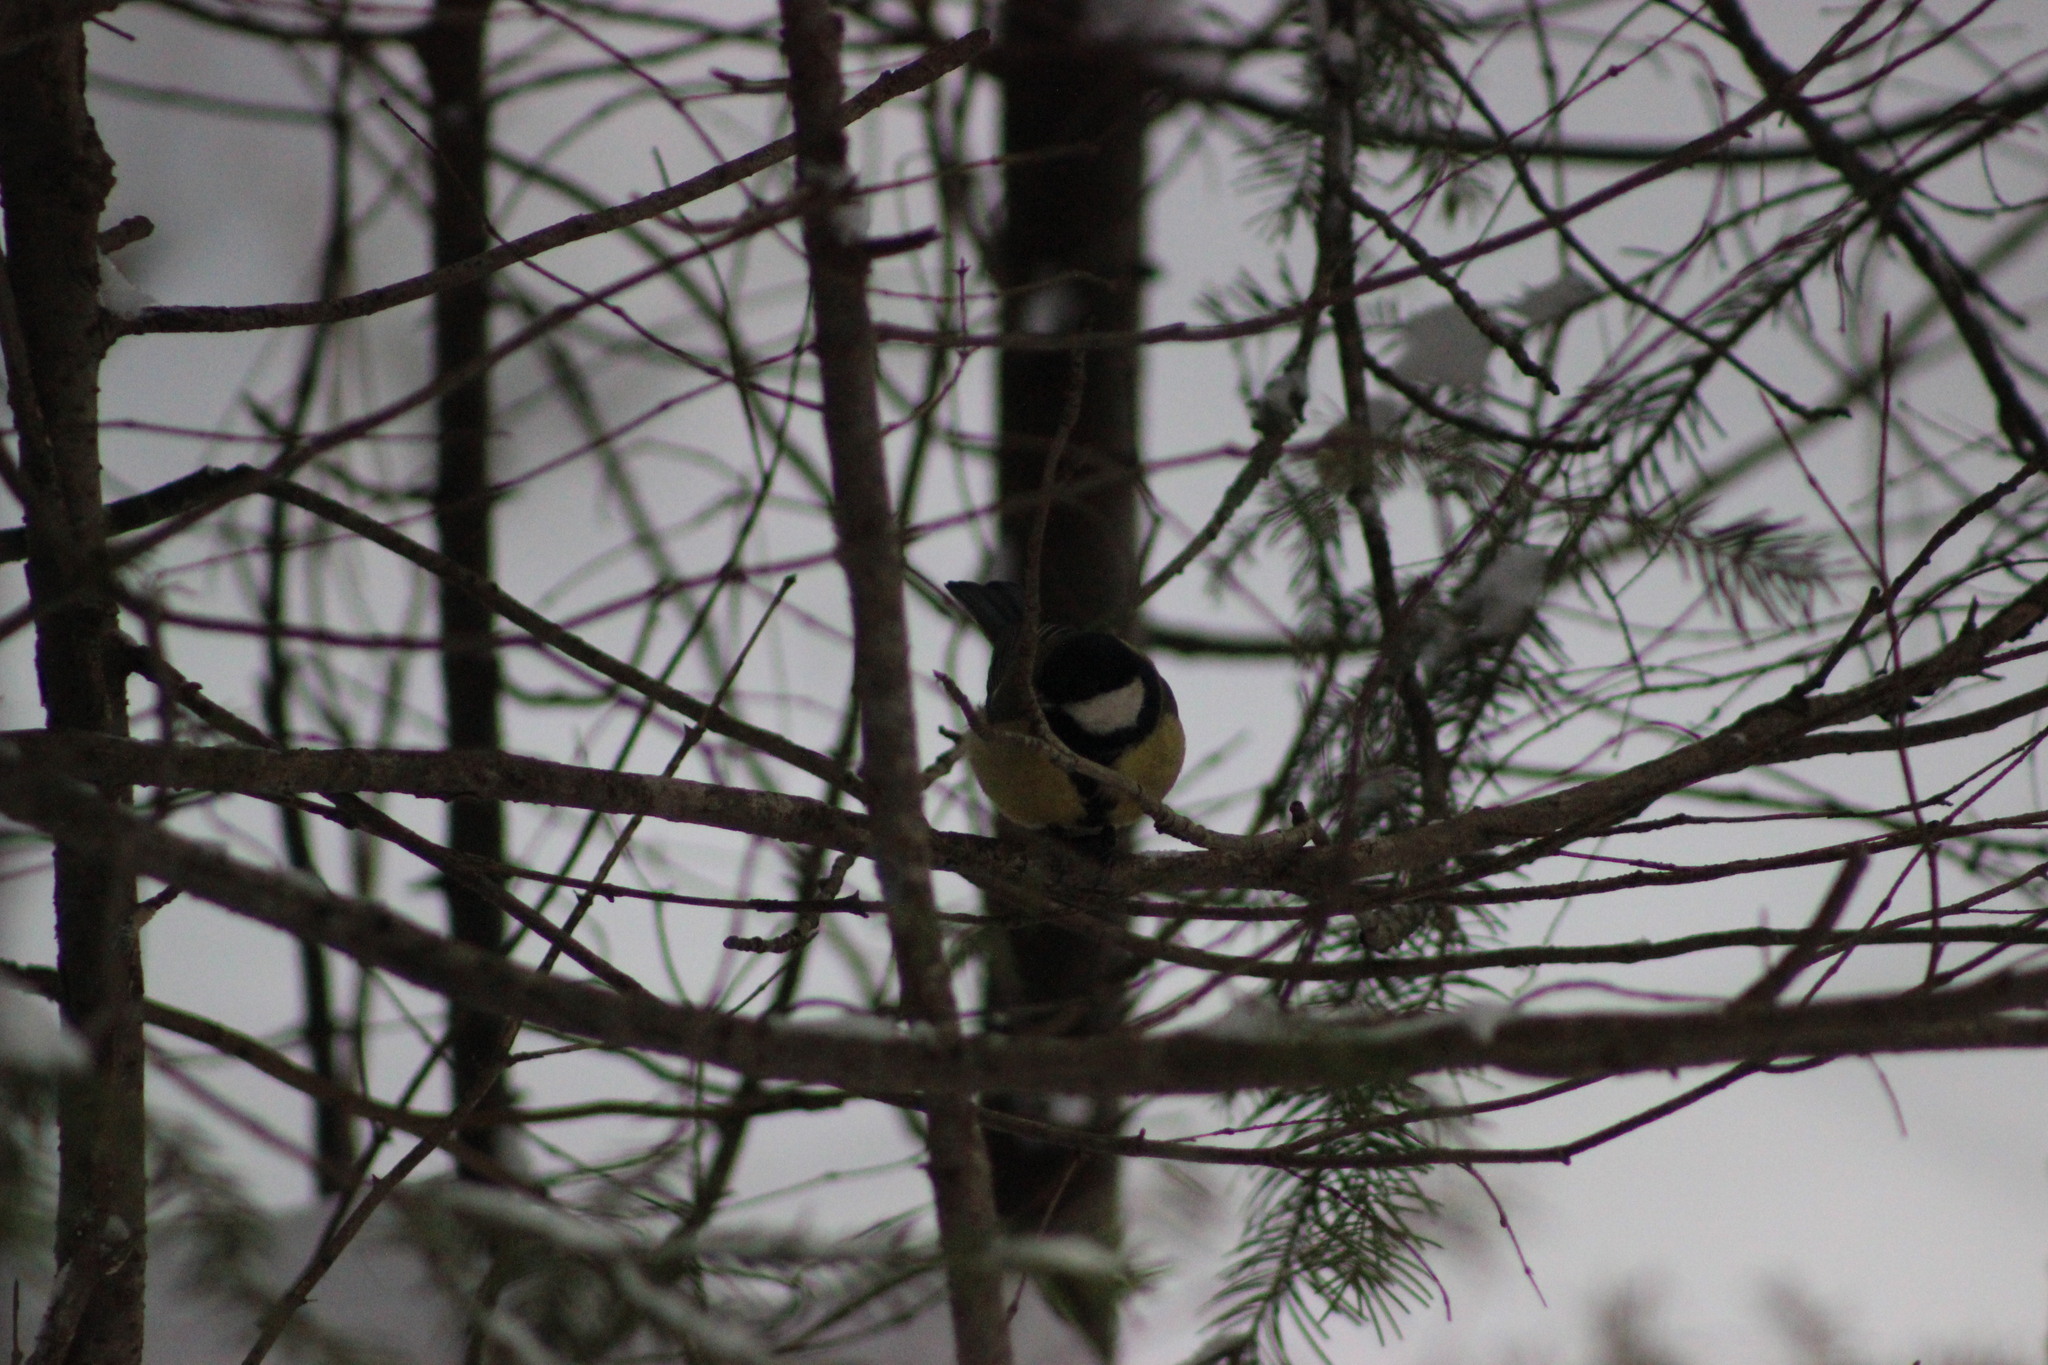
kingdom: Animalia
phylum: Chordata
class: Aves
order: Passeriformes
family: Paridae
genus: Parus
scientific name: Parus major
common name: Great tit
